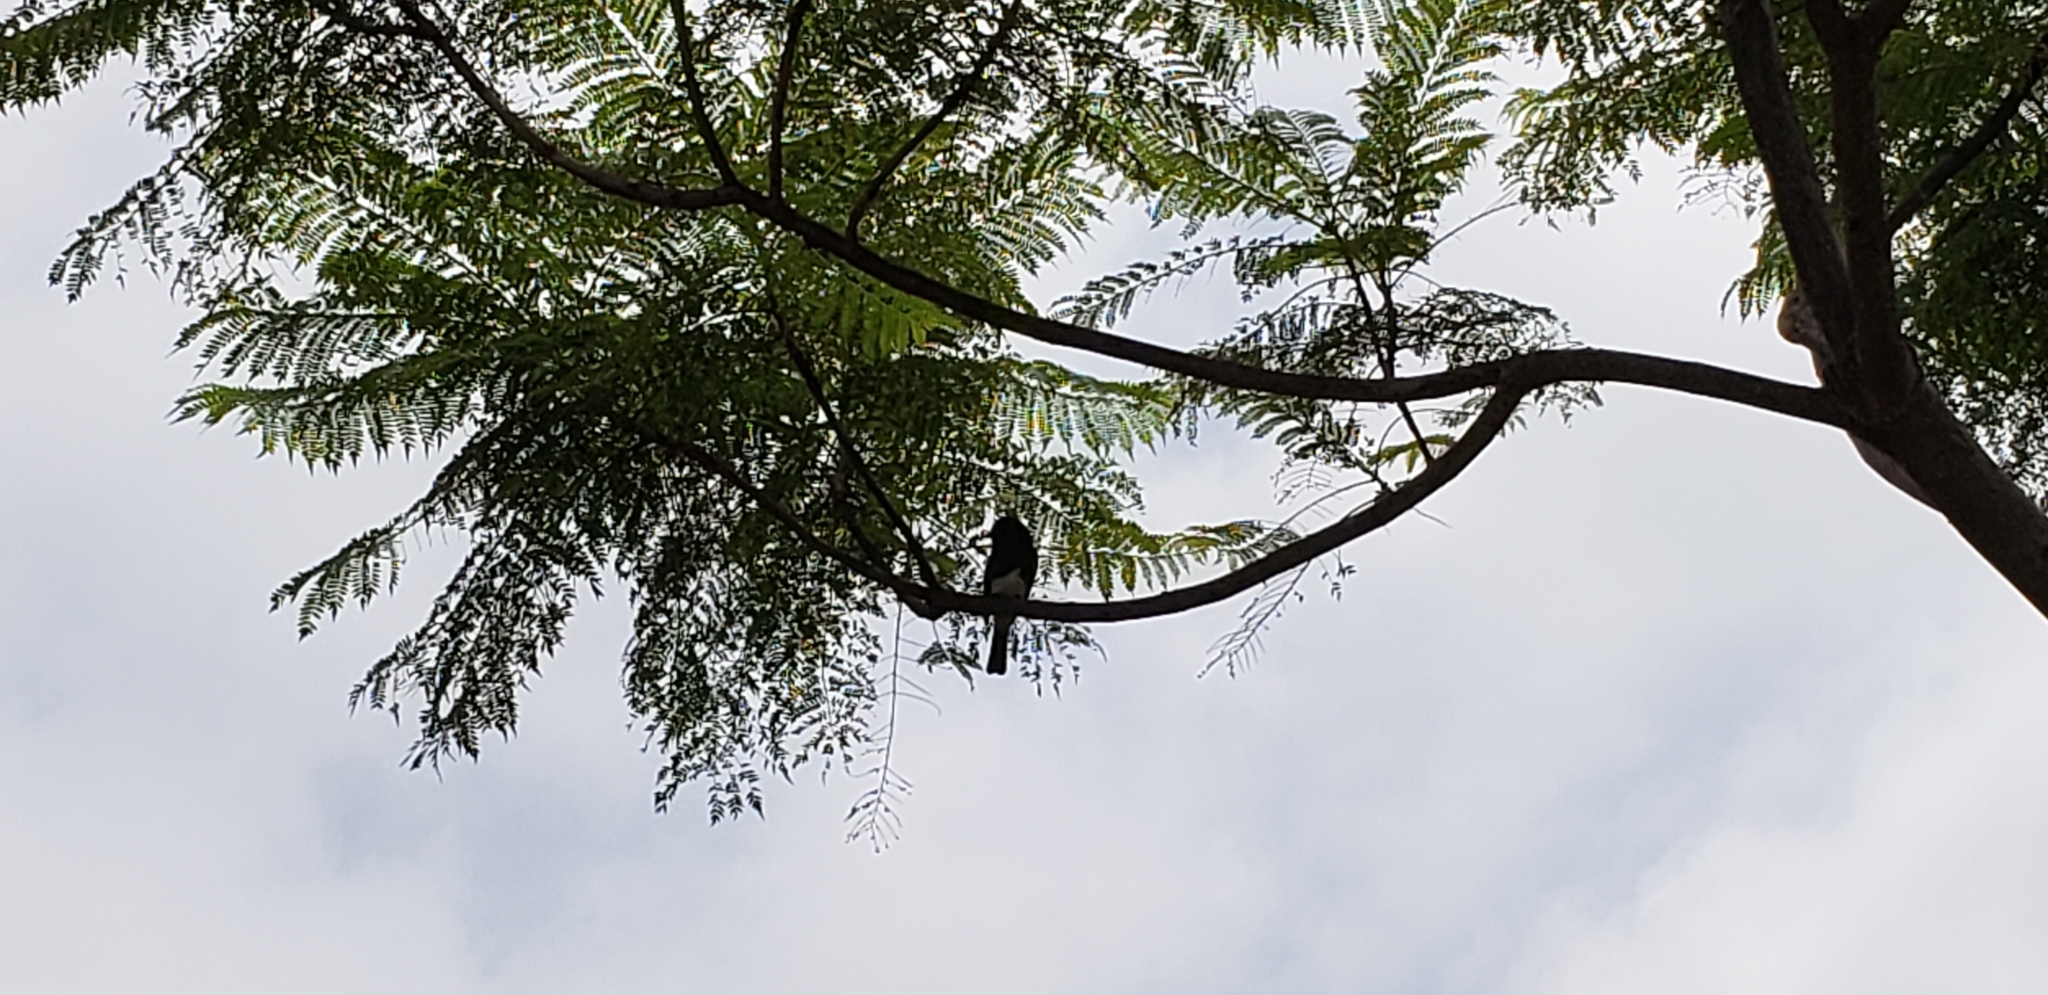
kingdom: Animalia
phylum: Chordata
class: Aves
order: Passeriformes
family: Tyrannidae
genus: Sayornis
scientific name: Sayornis nigricans
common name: Black phoebe
